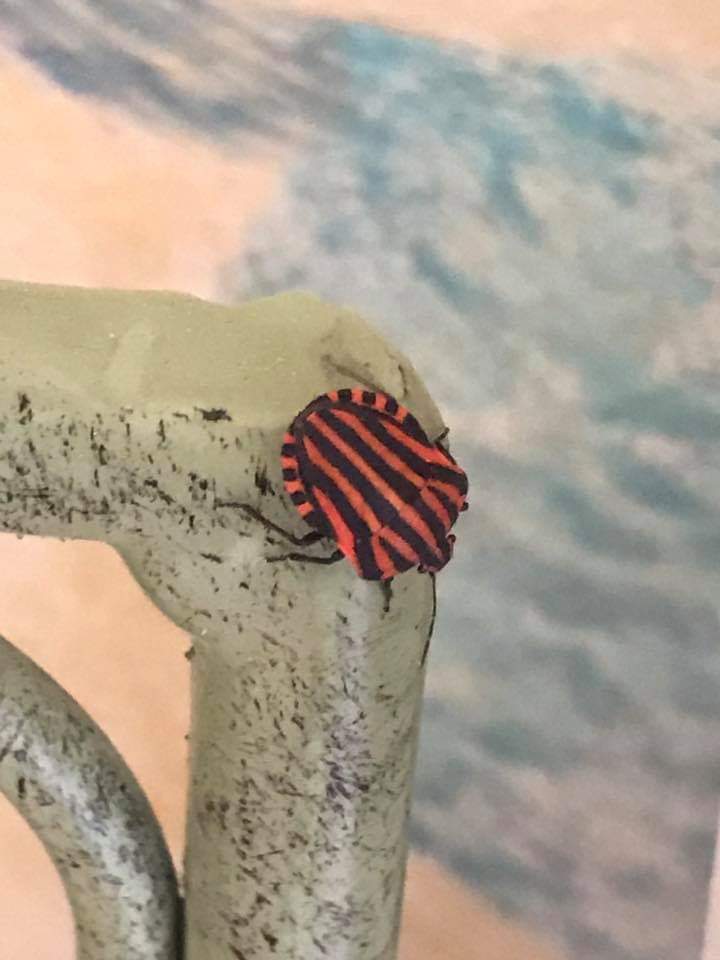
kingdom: Animalia
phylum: Arthropoda
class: Insecta
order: Hemiptera
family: Pentatomidae
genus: Graphosoma
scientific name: Graphosoma italicum
